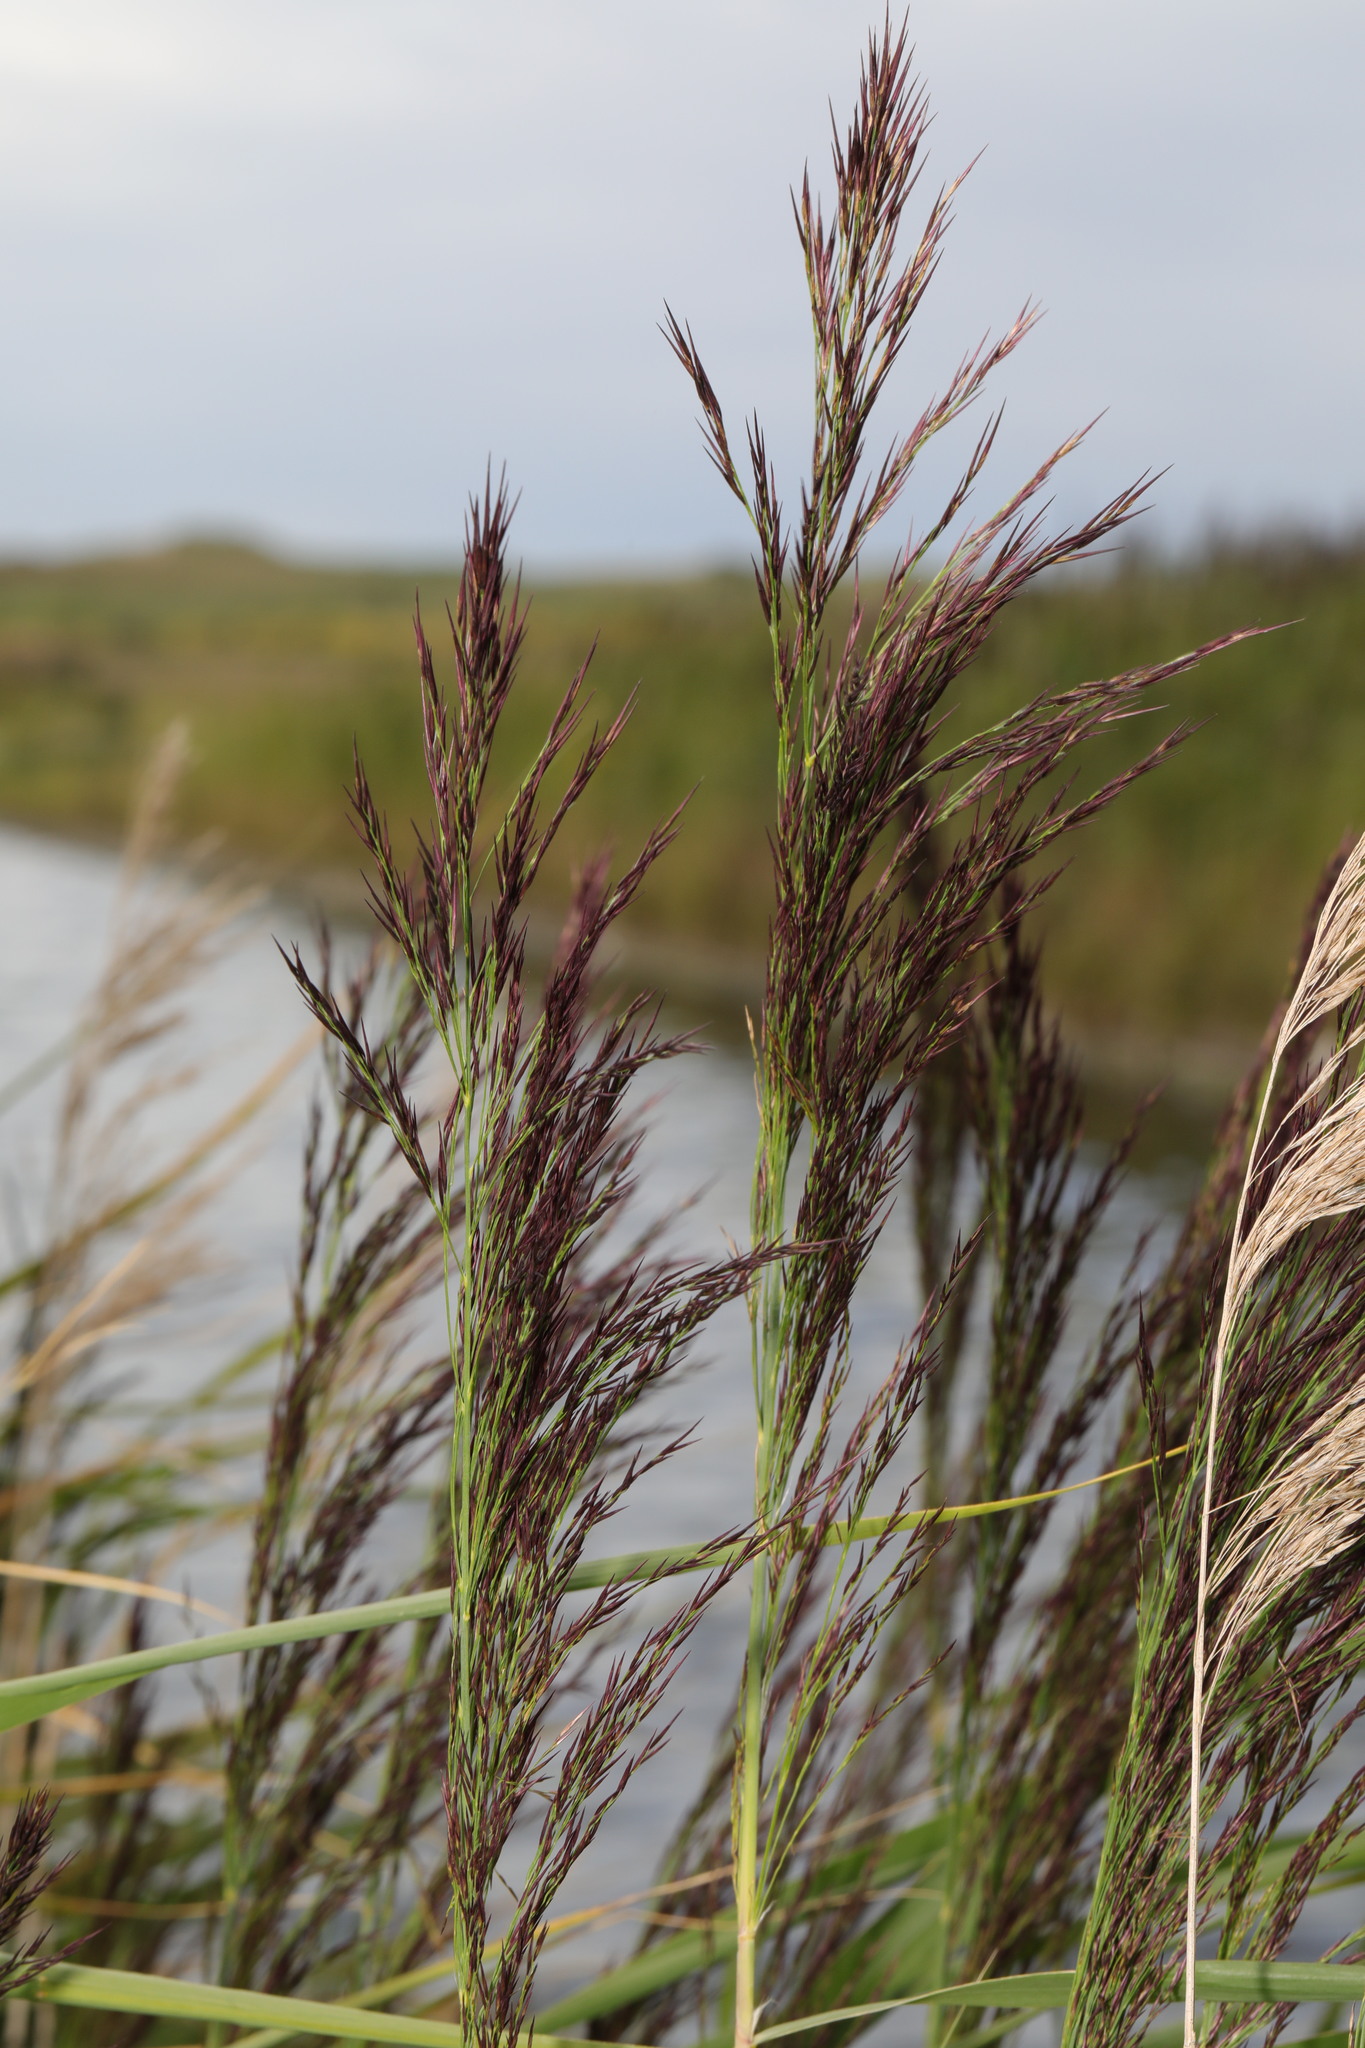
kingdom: Plantae
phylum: Tracheophyta
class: Liliopsida
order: Poales
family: Poaceae
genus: Phragmites
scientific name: Phragmites australis
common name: Common reed
